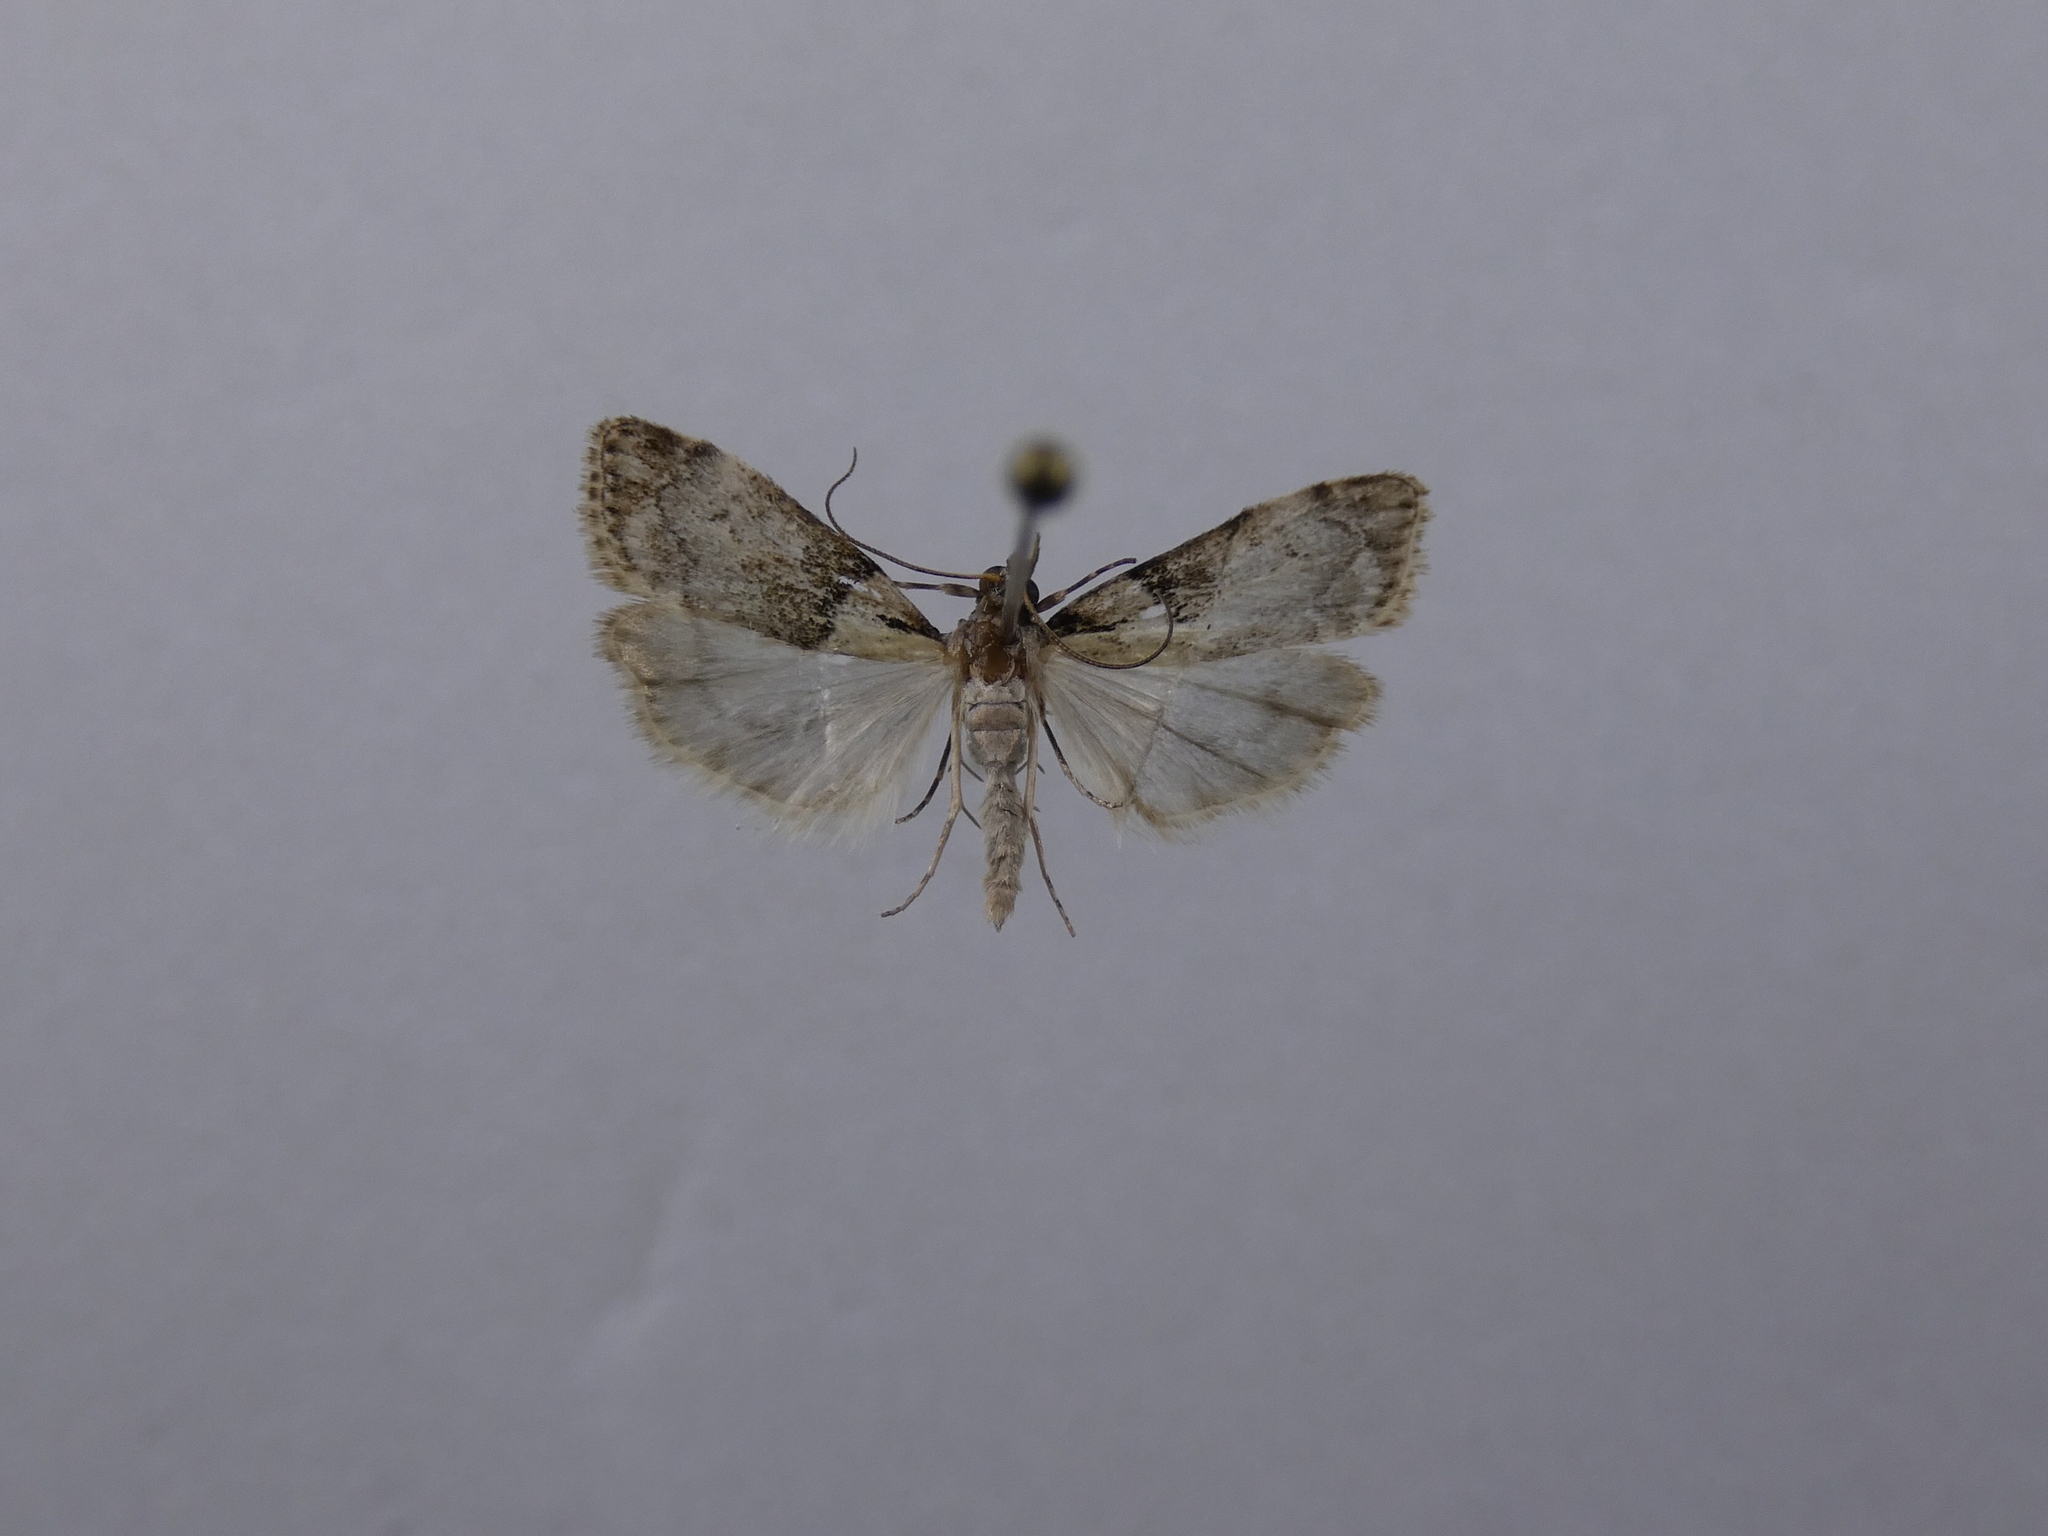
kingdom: Animalia
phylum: Arthropoda
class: Insecta
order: Lepidoptera
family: Crambidae
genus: Eudonia
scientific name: Eudonia colpota
